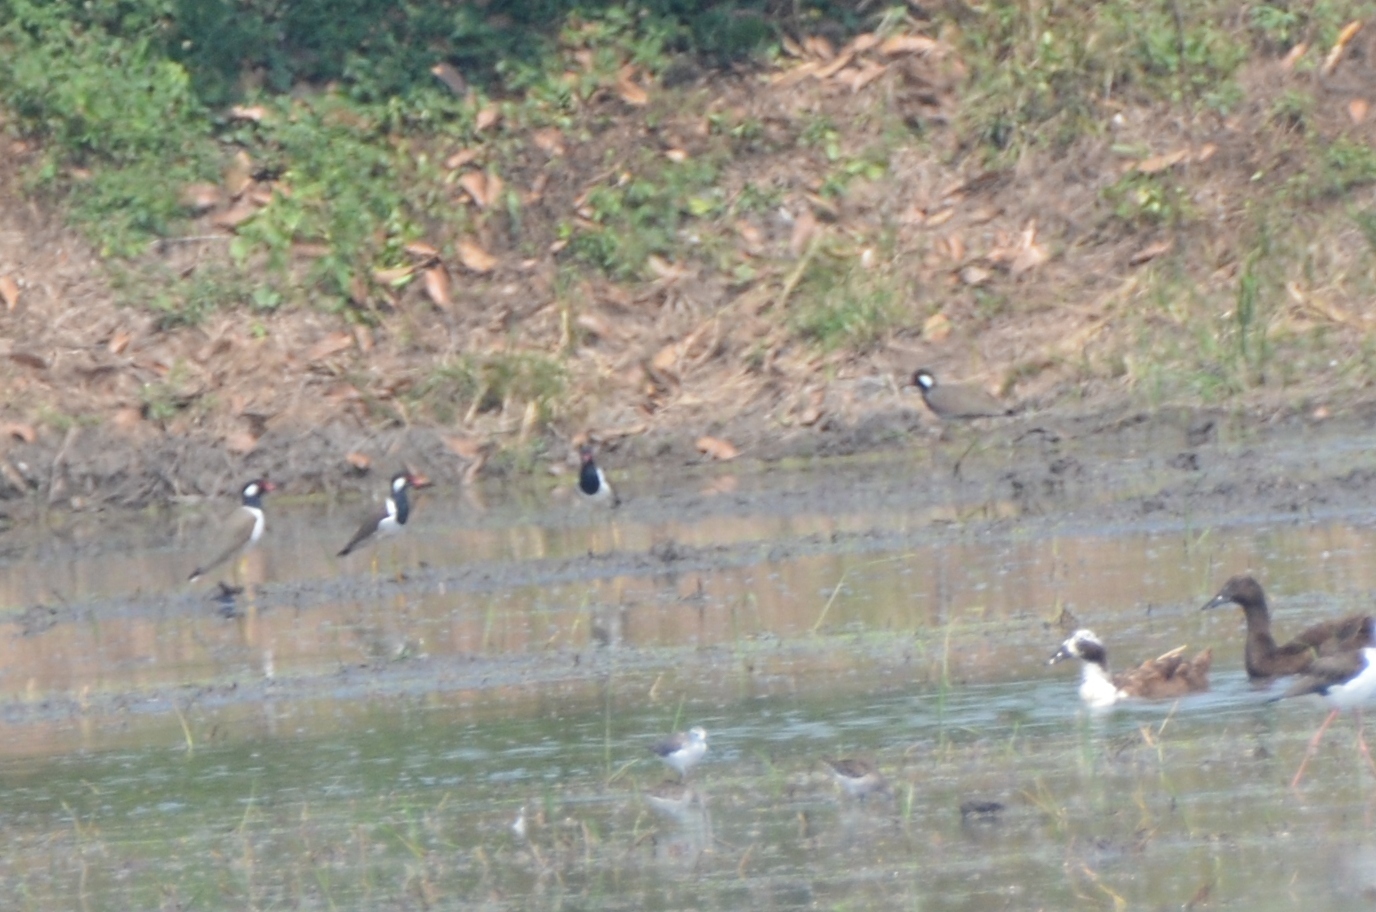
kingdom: Animalia
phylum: Chordata
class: Aves
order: Charadriiformes
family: Charadriidae
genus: Vanellus
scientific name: Vanellus indicus
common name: Red-wattled lapwing
